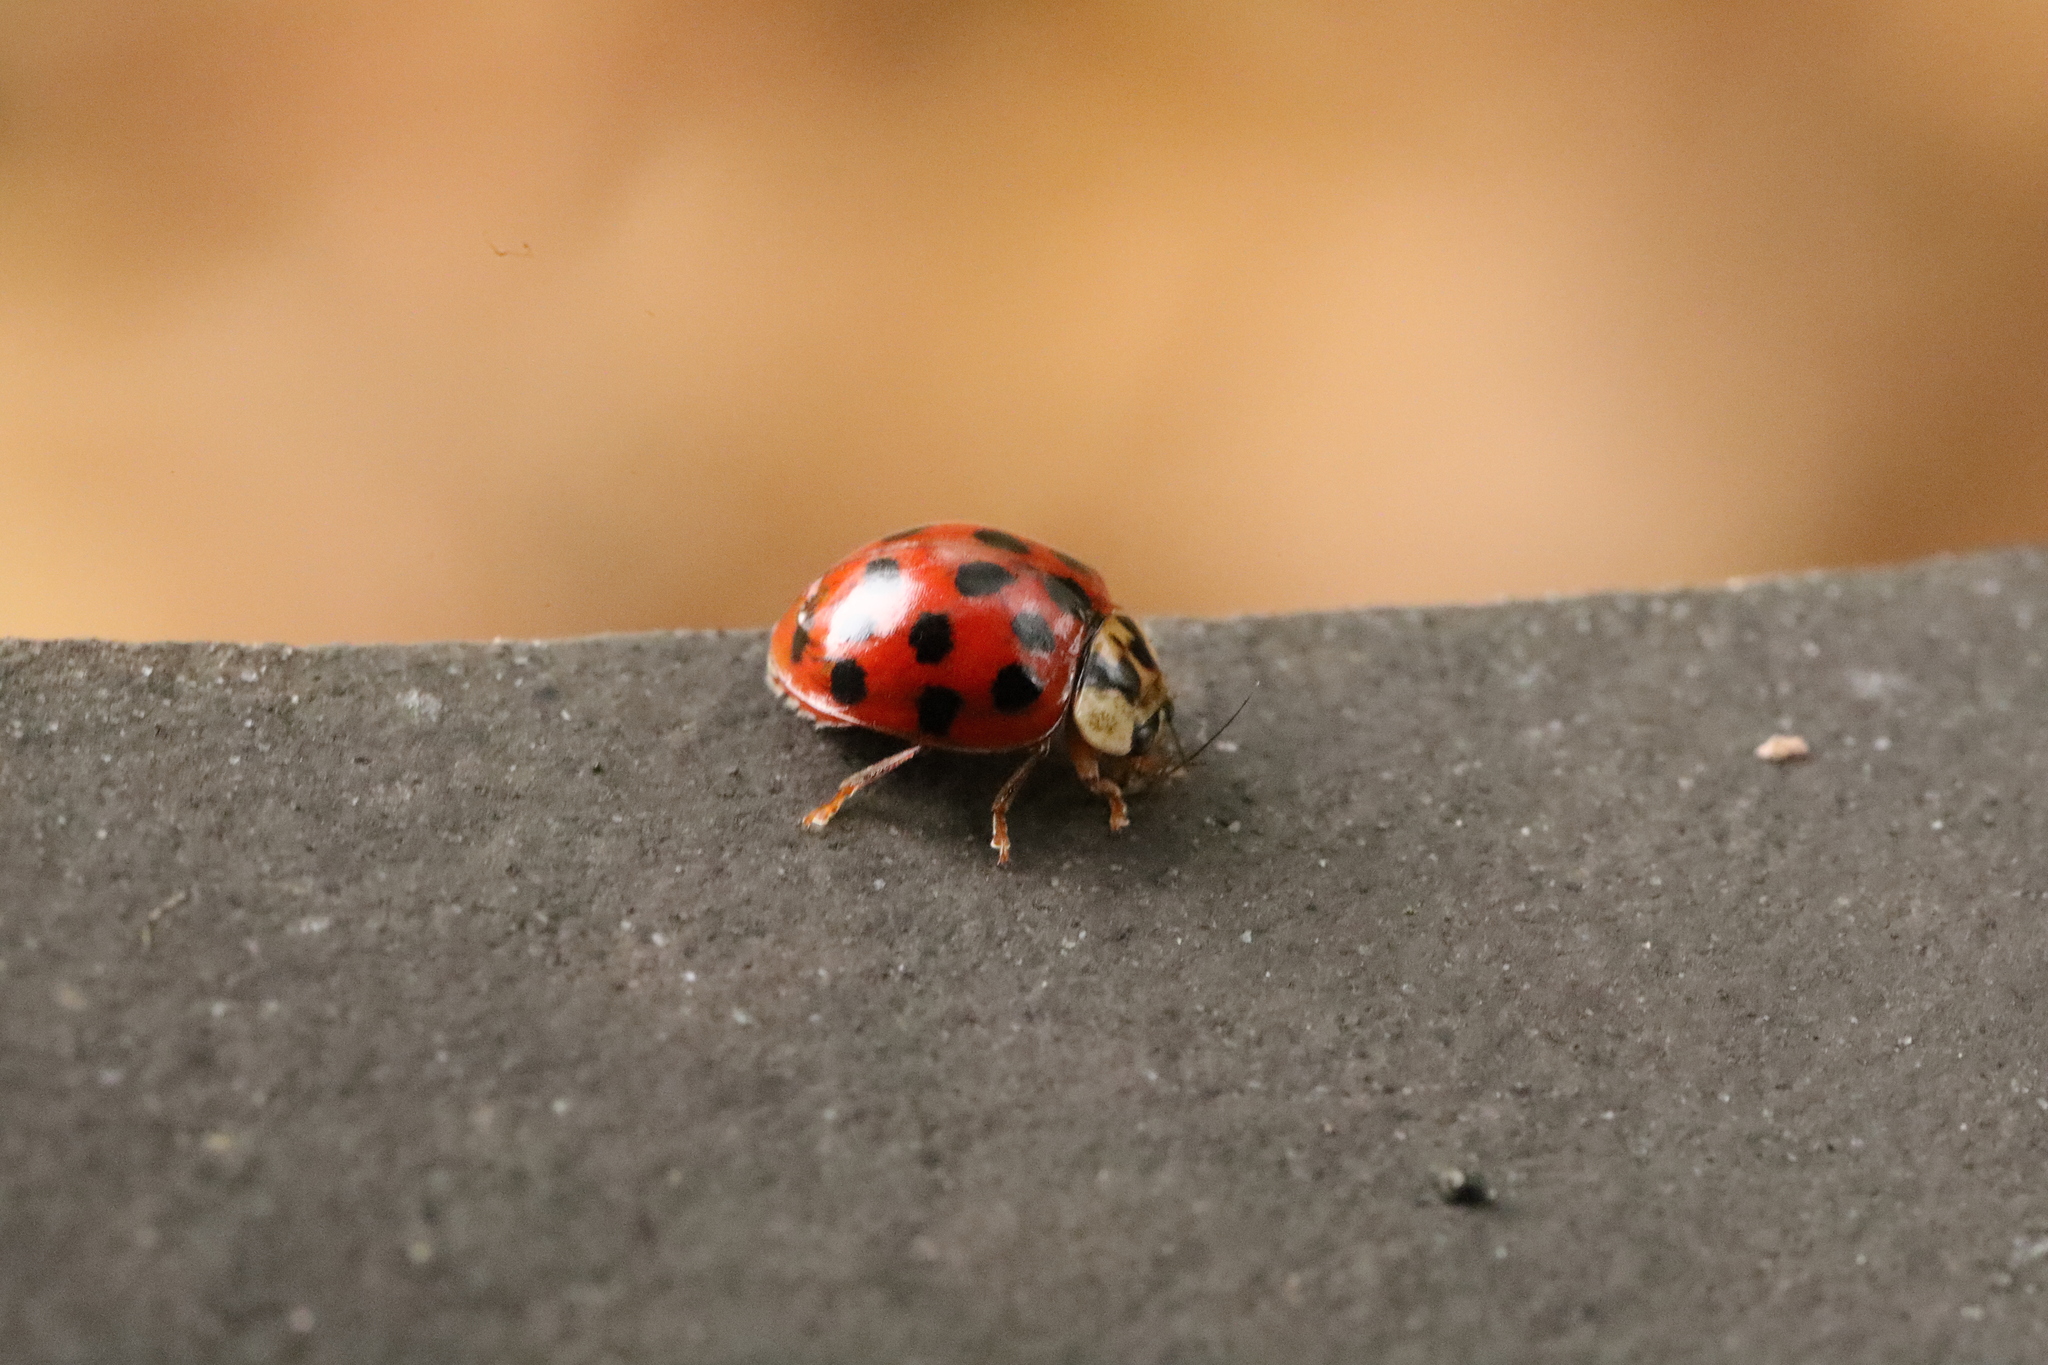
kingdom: Animalia
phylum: Arthropoda
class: Insecta
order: Coleoptera
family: Coccinellidae
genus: Harmonia
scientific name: Harmonia axyridis
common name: Harlequin ladybird
